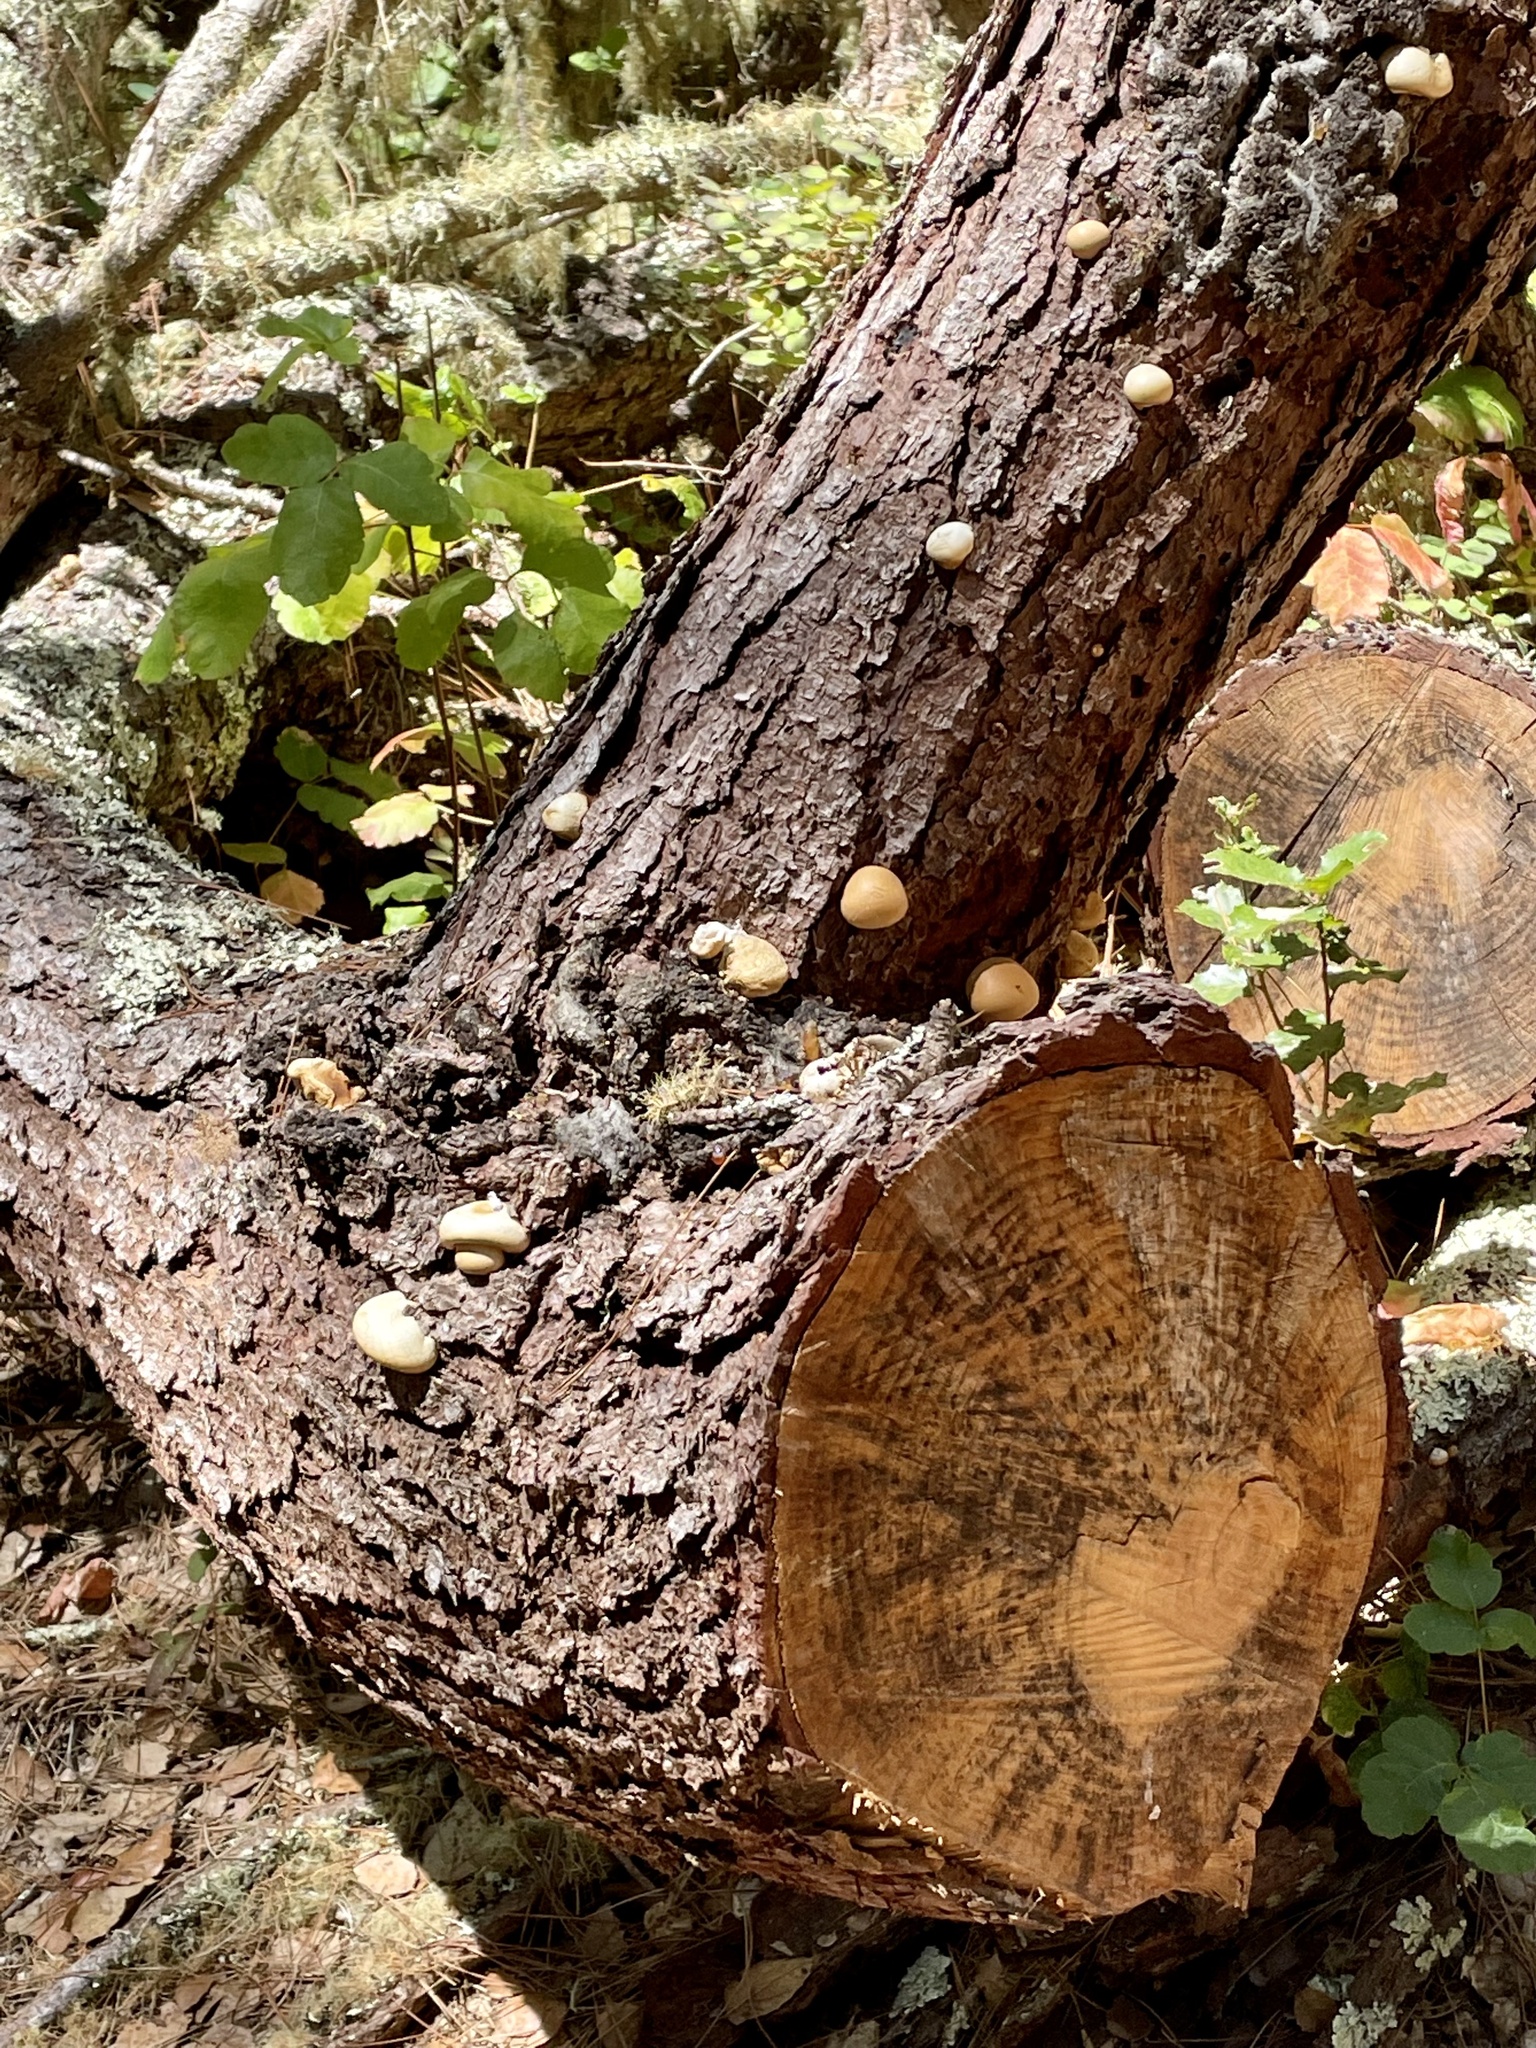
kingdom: Fungi
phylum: Basidiomycota
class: Agaricomycetes
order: Polyporales
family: Polyporaceae
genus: Cryptoporus
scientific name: Cryptoporus volvatus
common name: Veiled polypore
